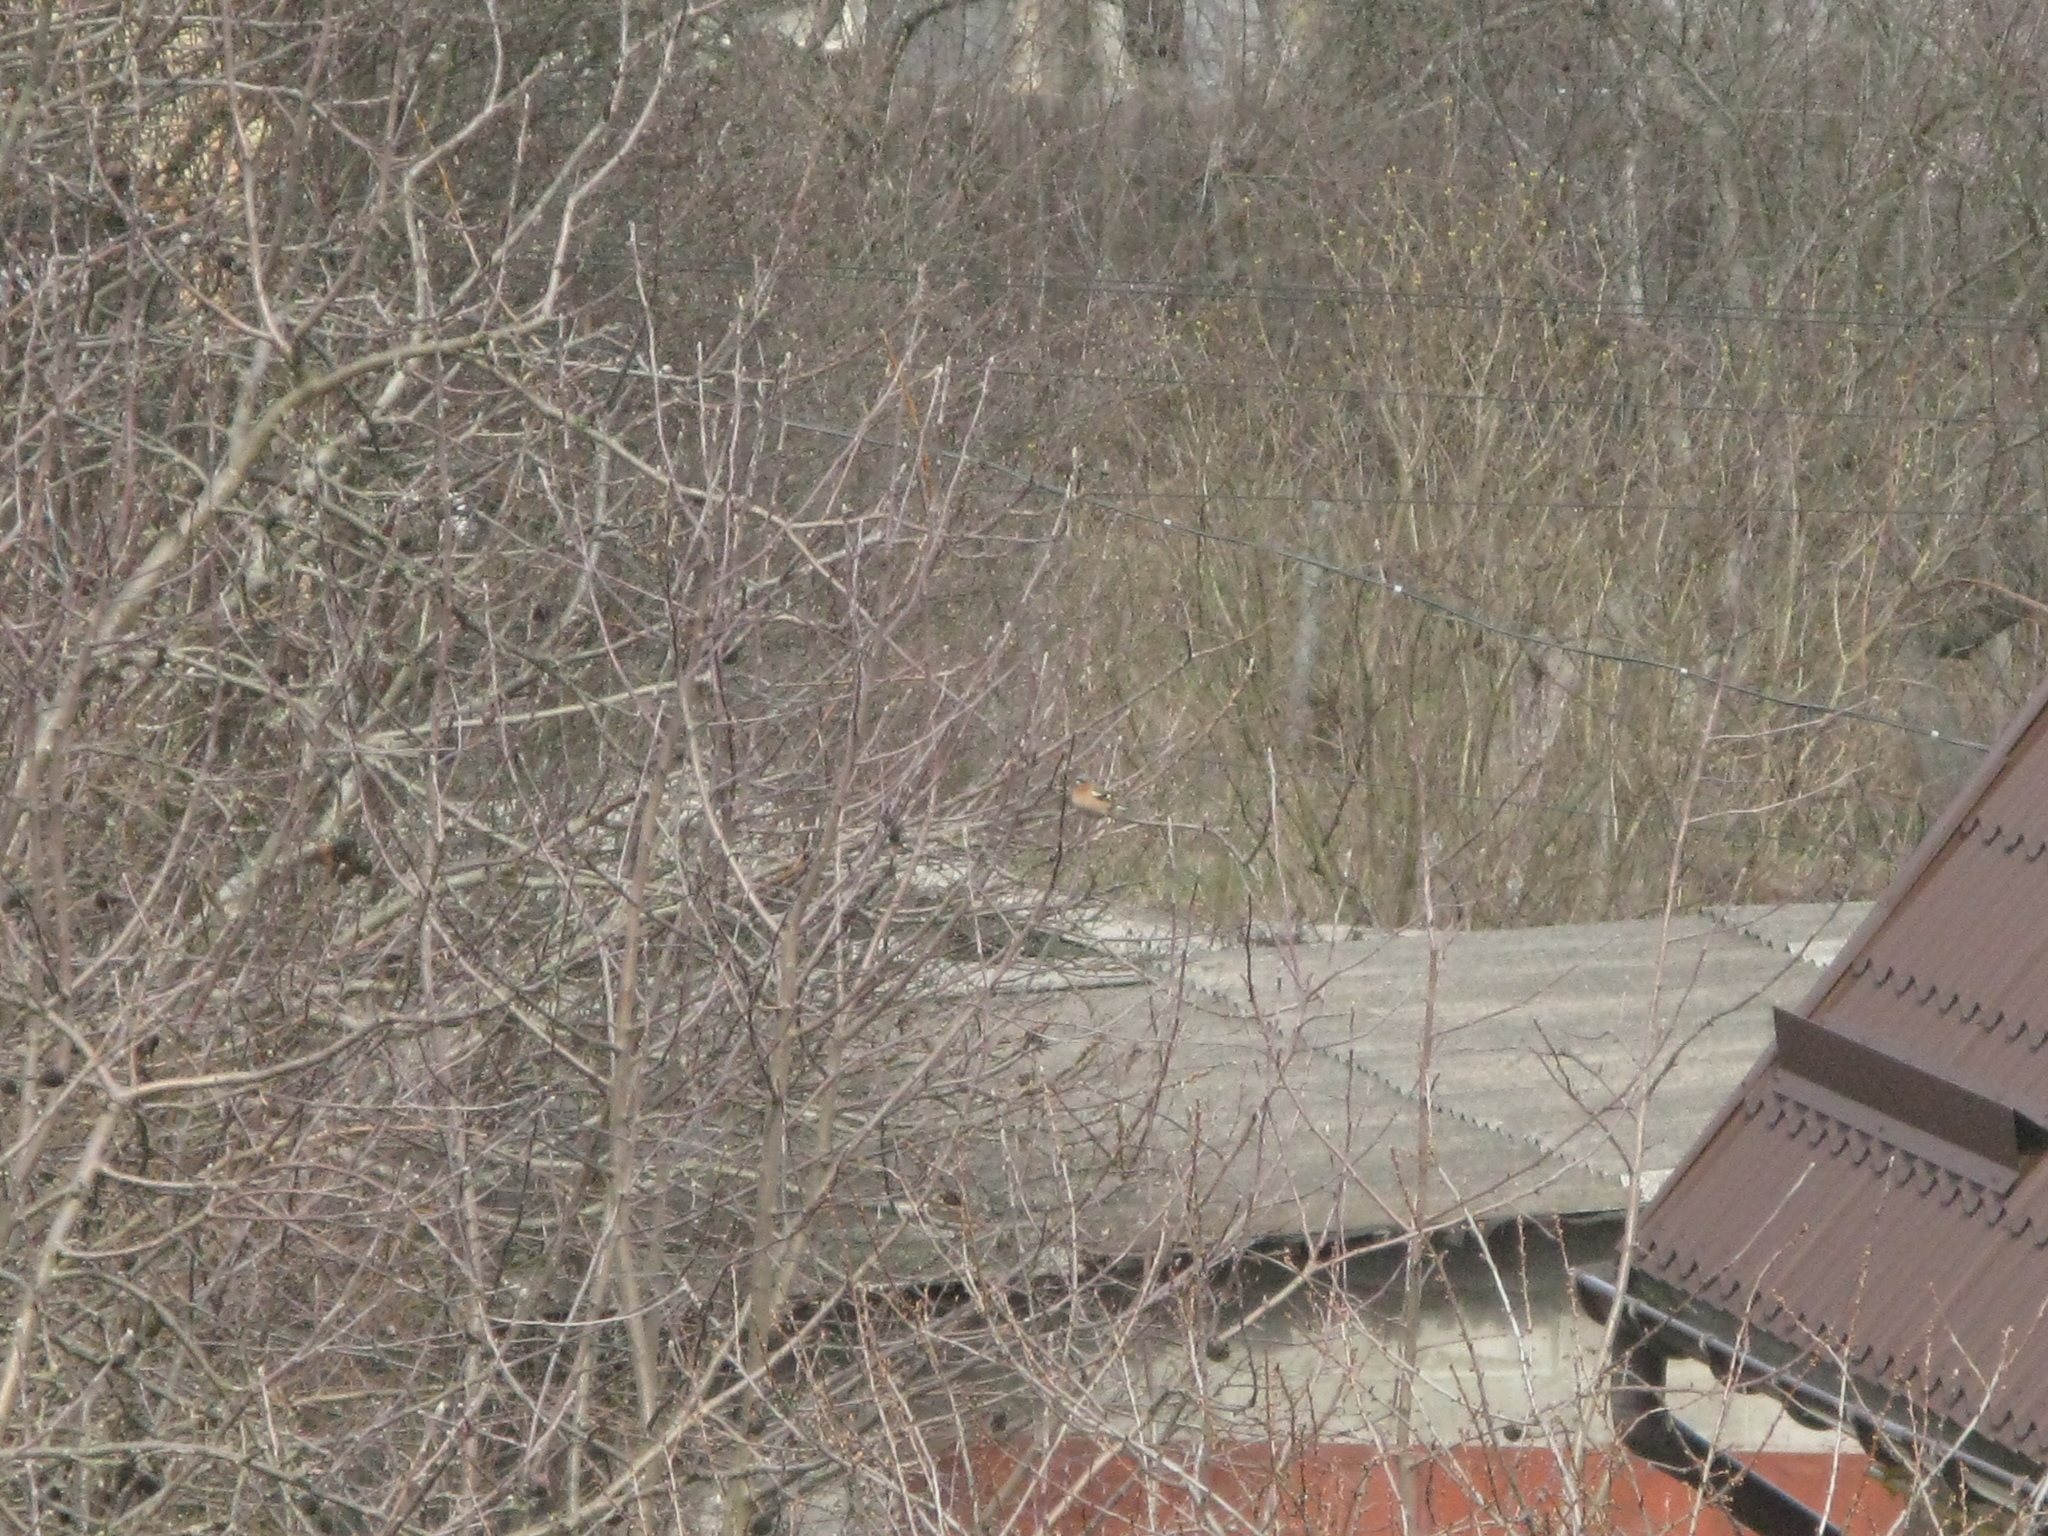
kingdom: Animalia
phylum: Chordata
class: Aves
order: Passeriformes
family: Fringillidae
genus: Fringilla
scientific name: Fringilla coelebs
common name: Common chaffinch
